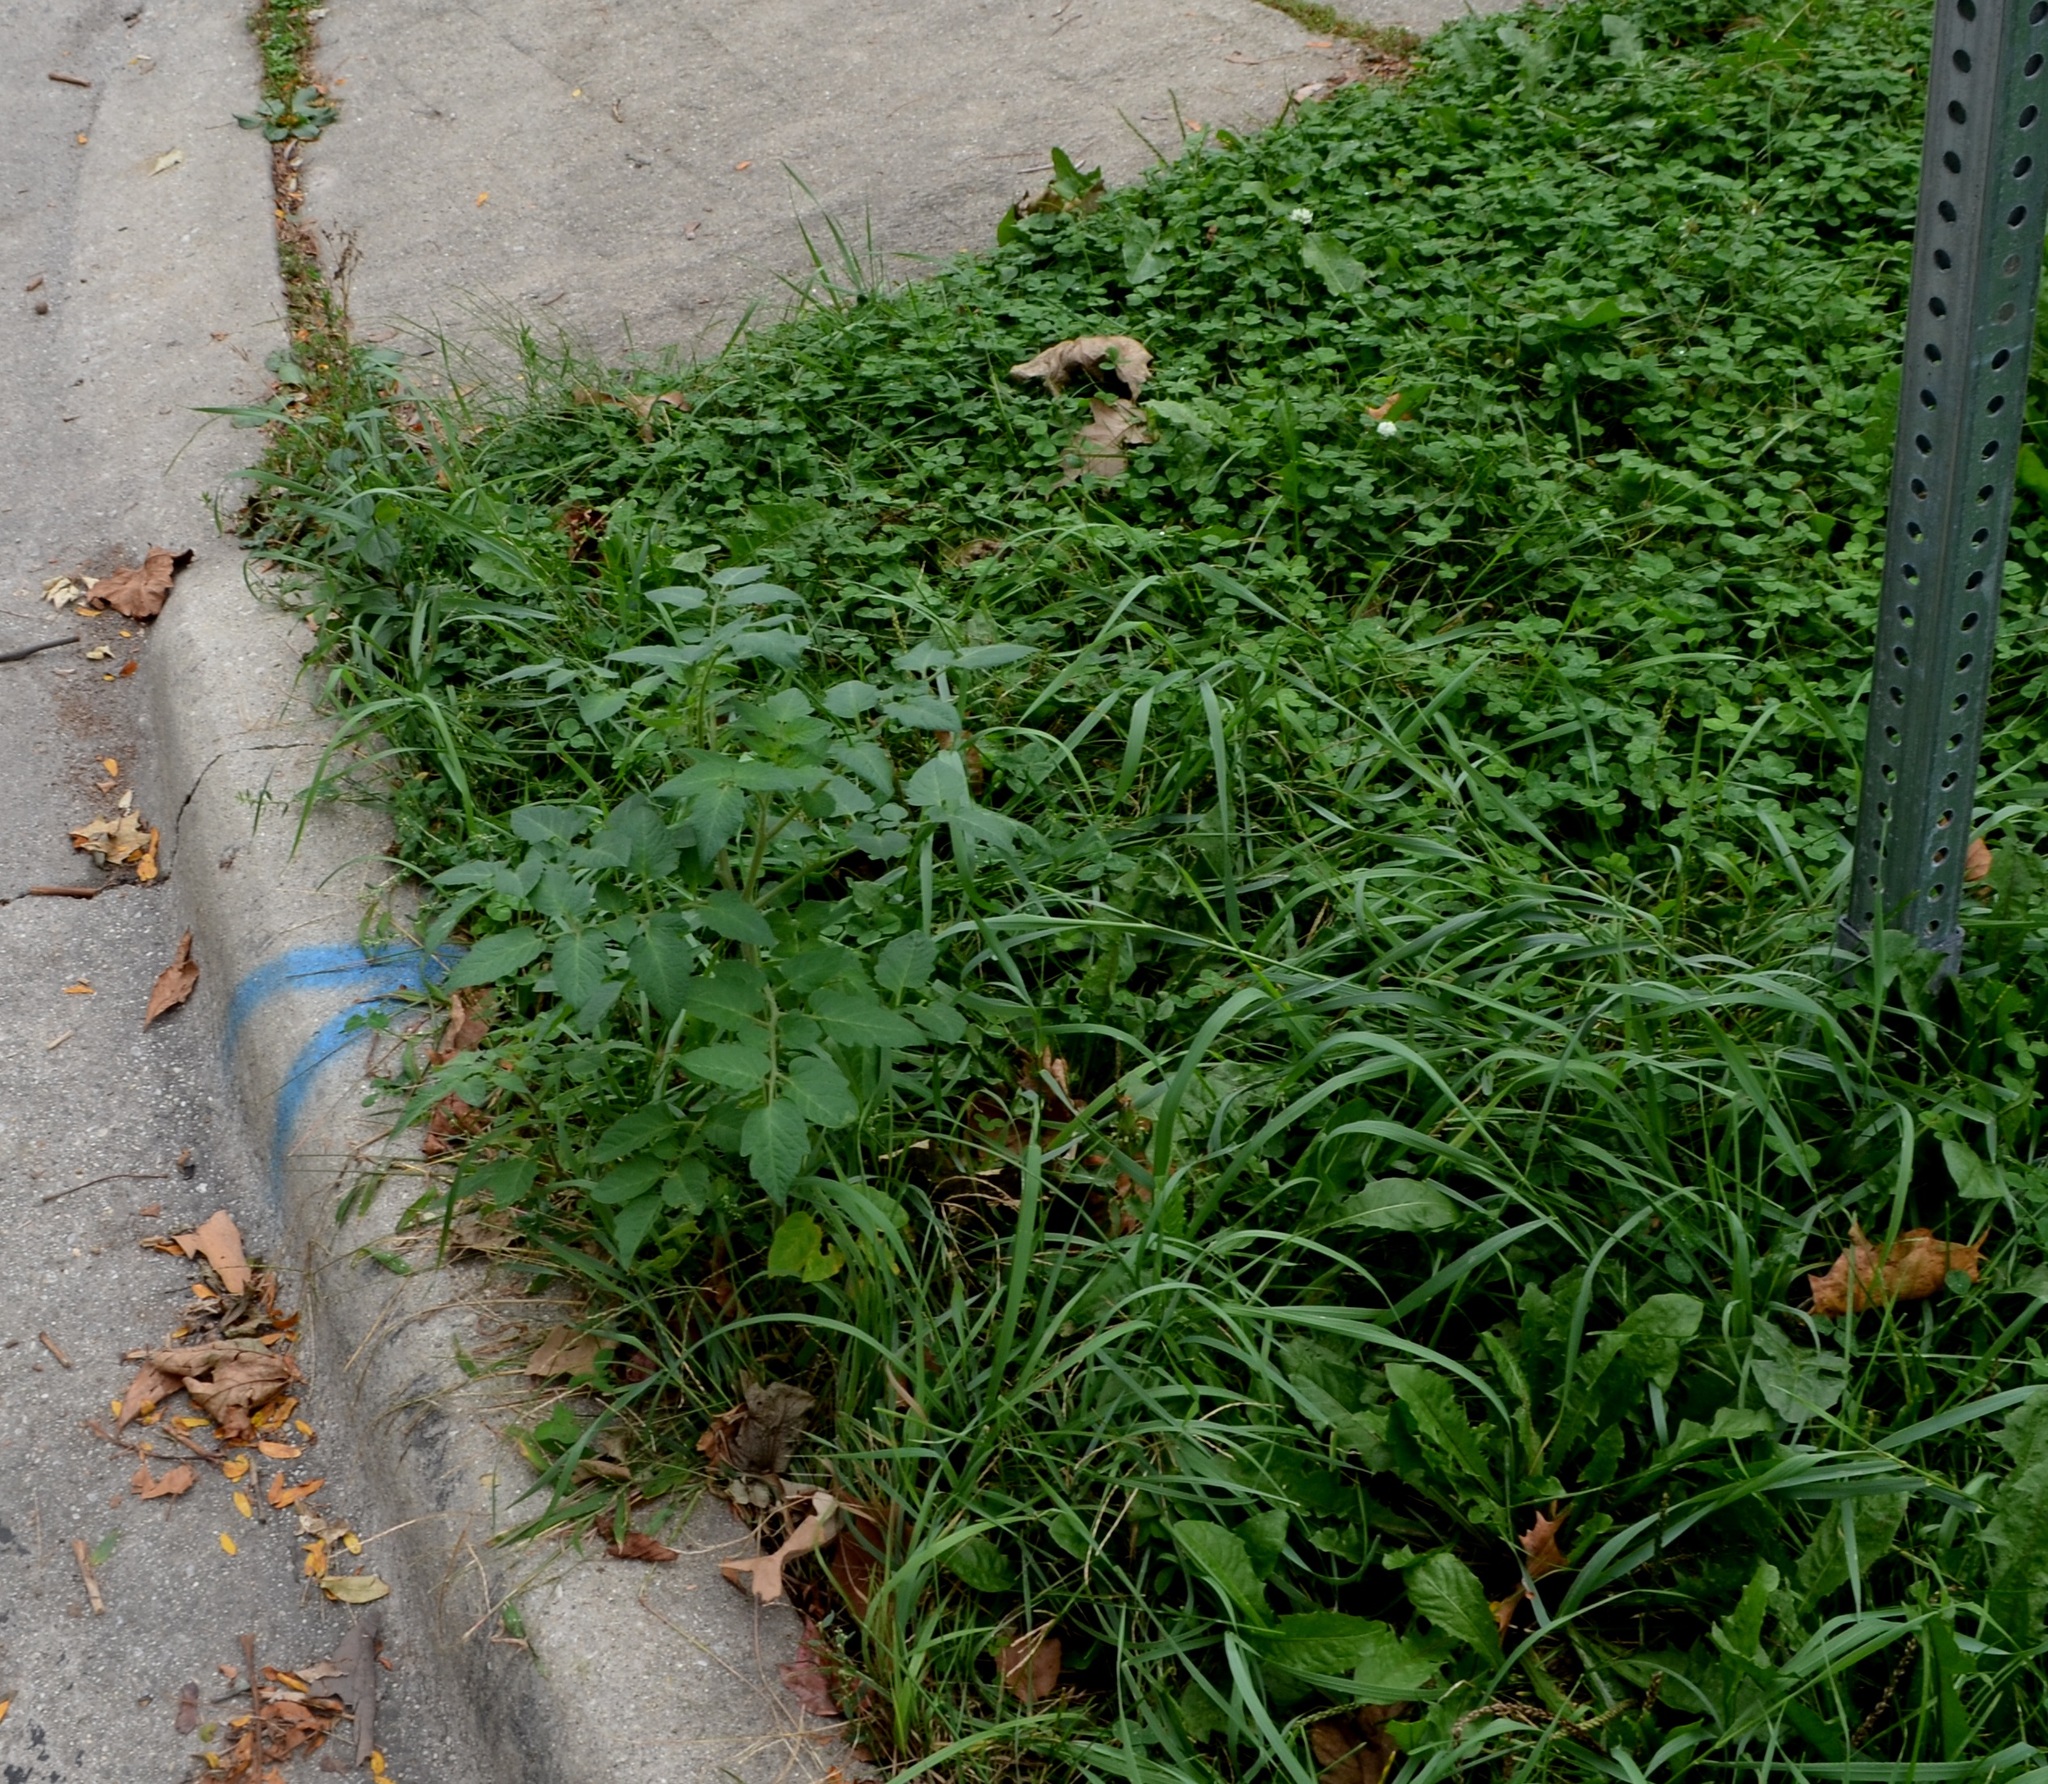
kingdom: Plantae
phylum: Tracheophyta
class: Magnoliopsida
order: Solanales
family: Solanaceae
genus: Solanum
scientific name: Solanum lycopersicum
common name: Garden tomato
